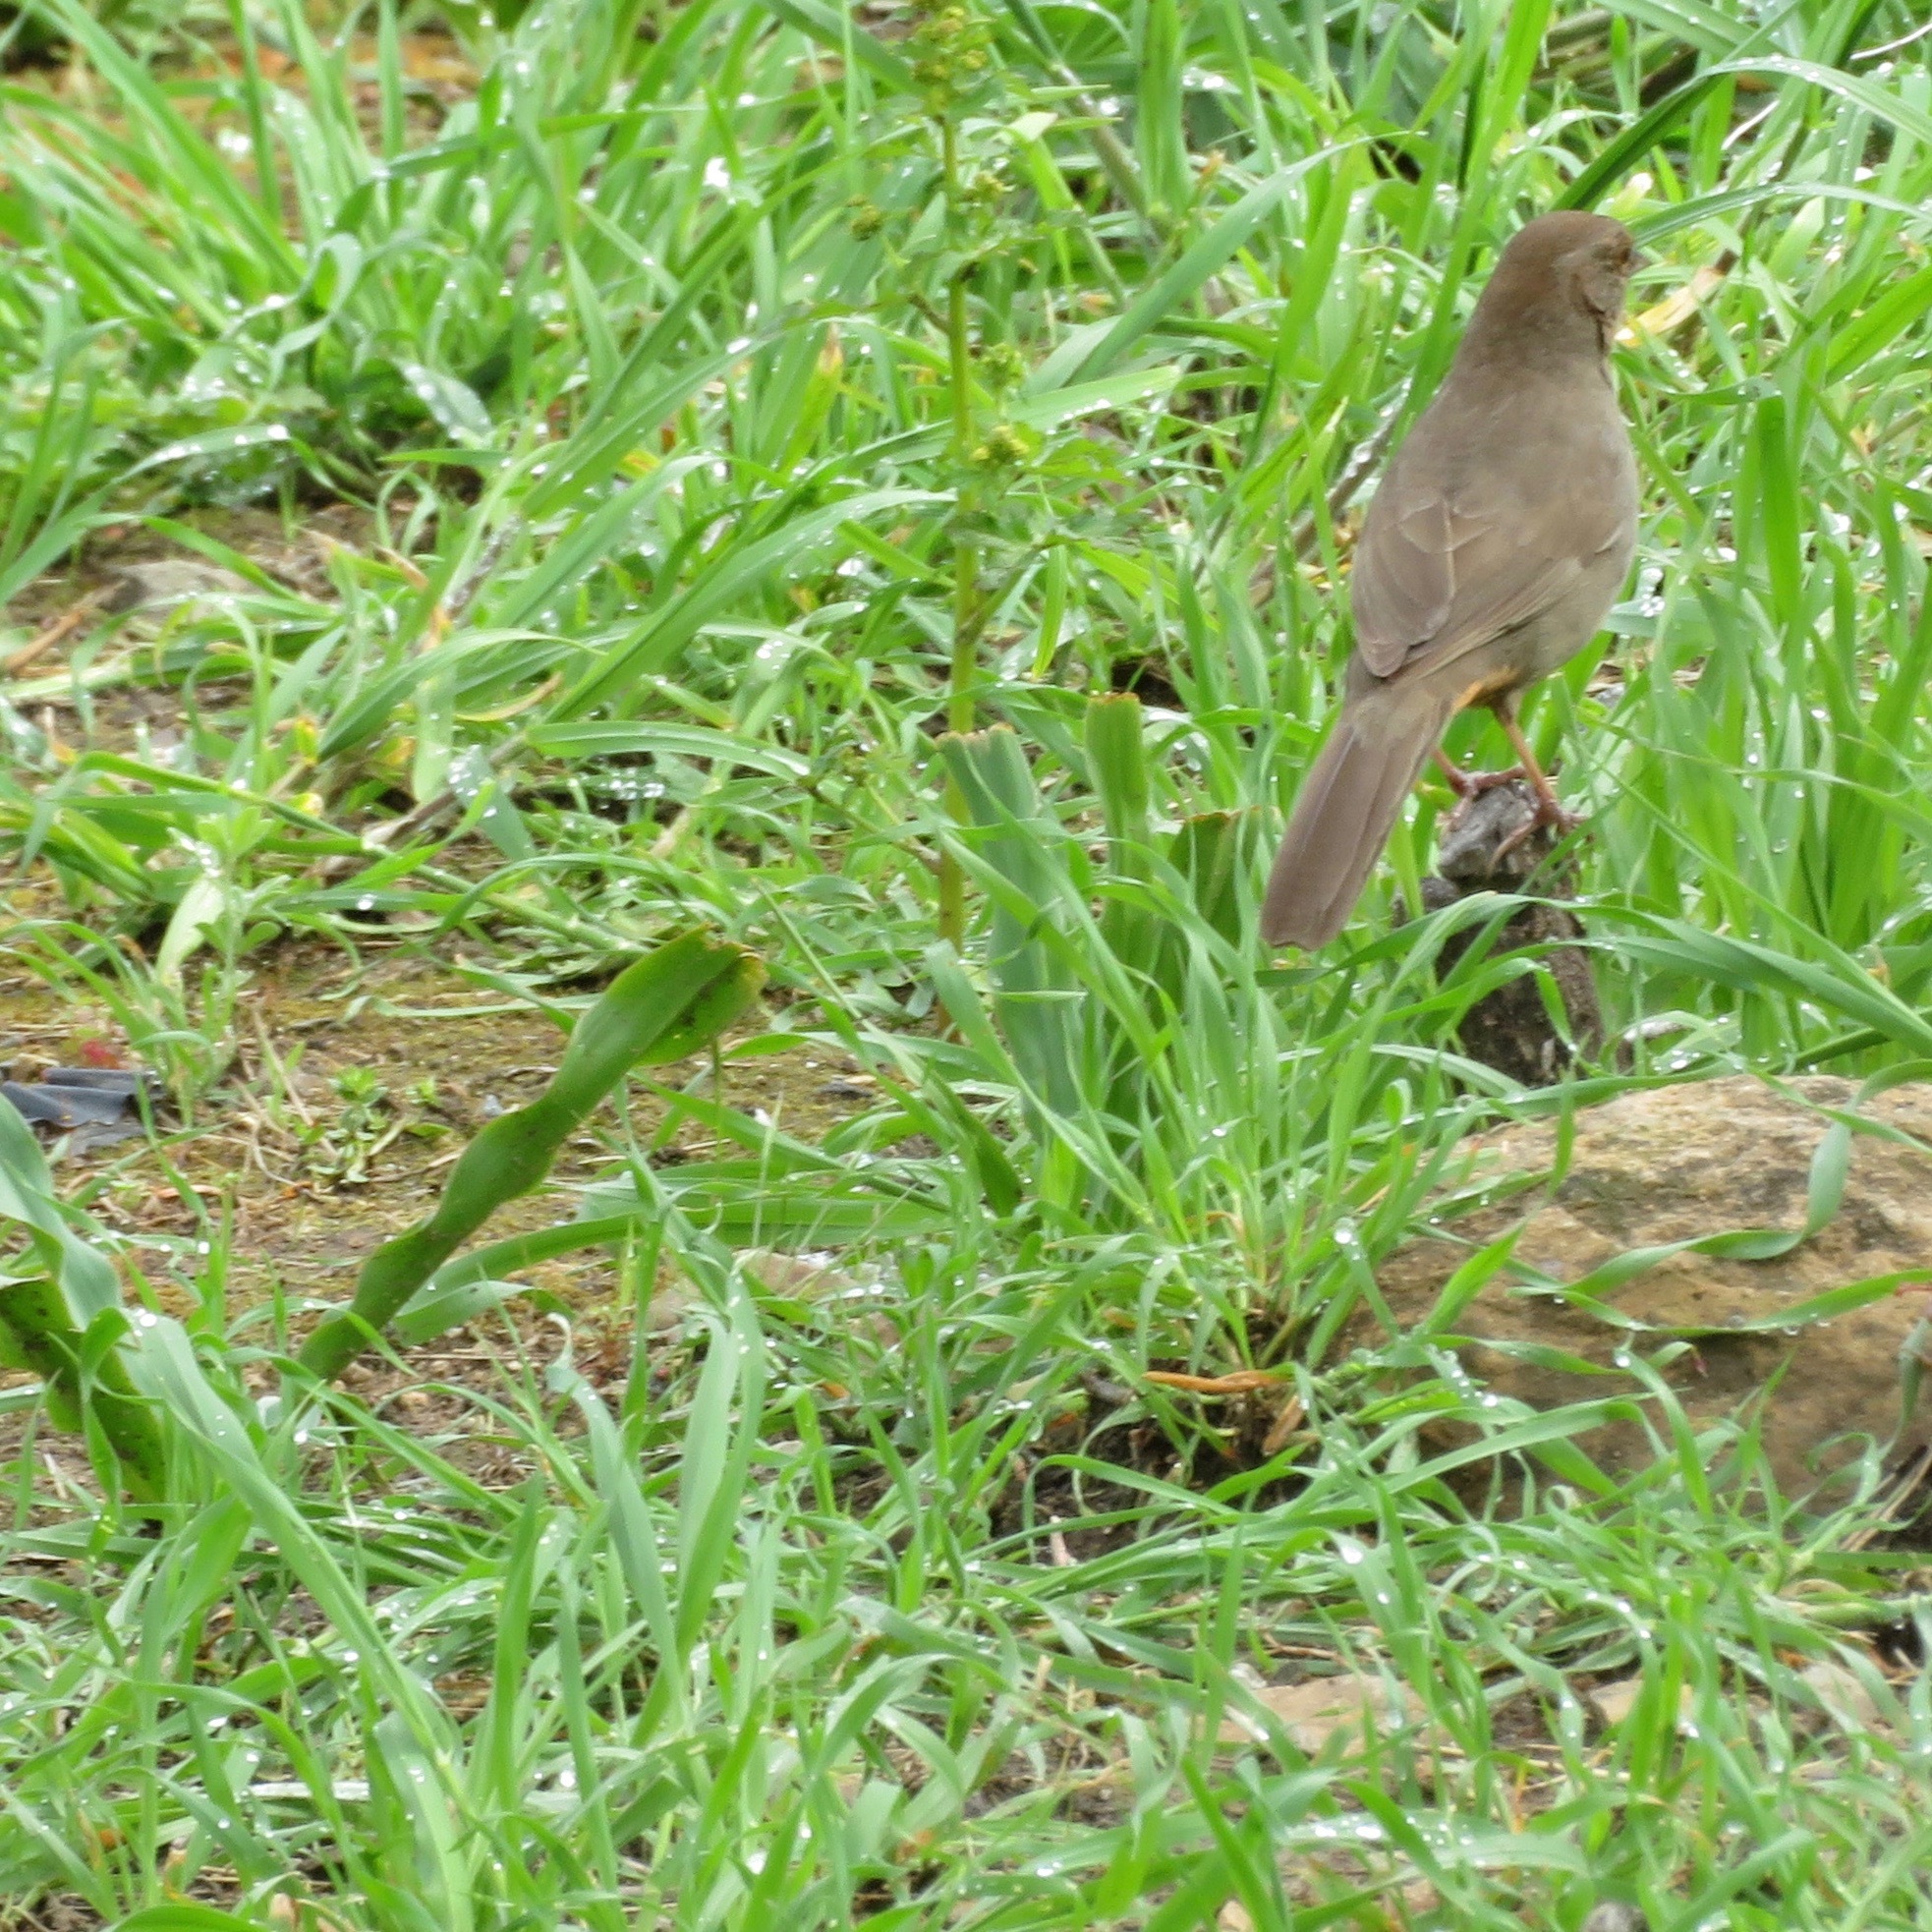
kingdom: Animalia
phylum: Chordata
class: Aves
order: Passeriformes
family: Passerellidae
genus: Melozone
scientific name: Melozone crissalis
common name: California towhee
